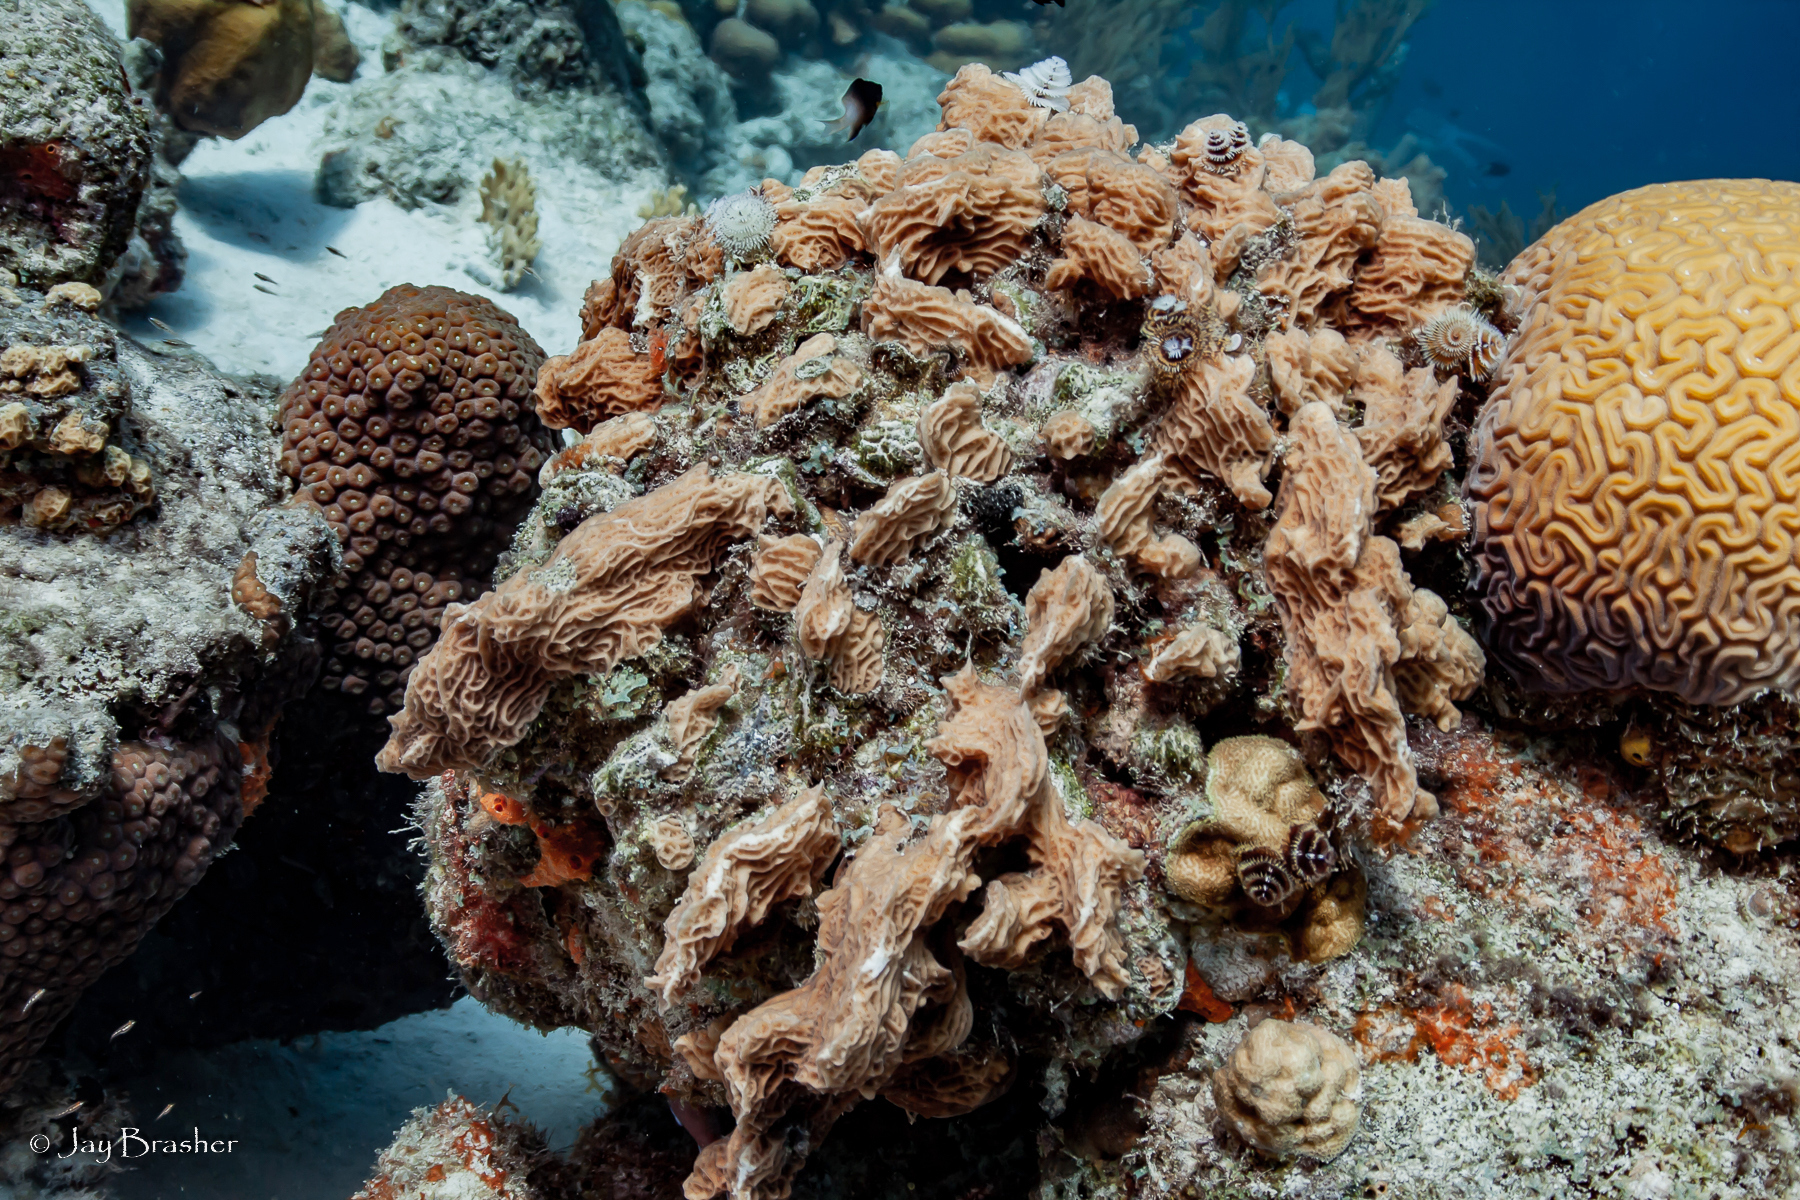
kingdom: Animalia
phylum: Cnidaria
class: Anthozoa
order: Scleractinia
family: Agariciidae
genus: Agaricia
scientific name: Agaricia agaricites
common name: Lettuce coral
